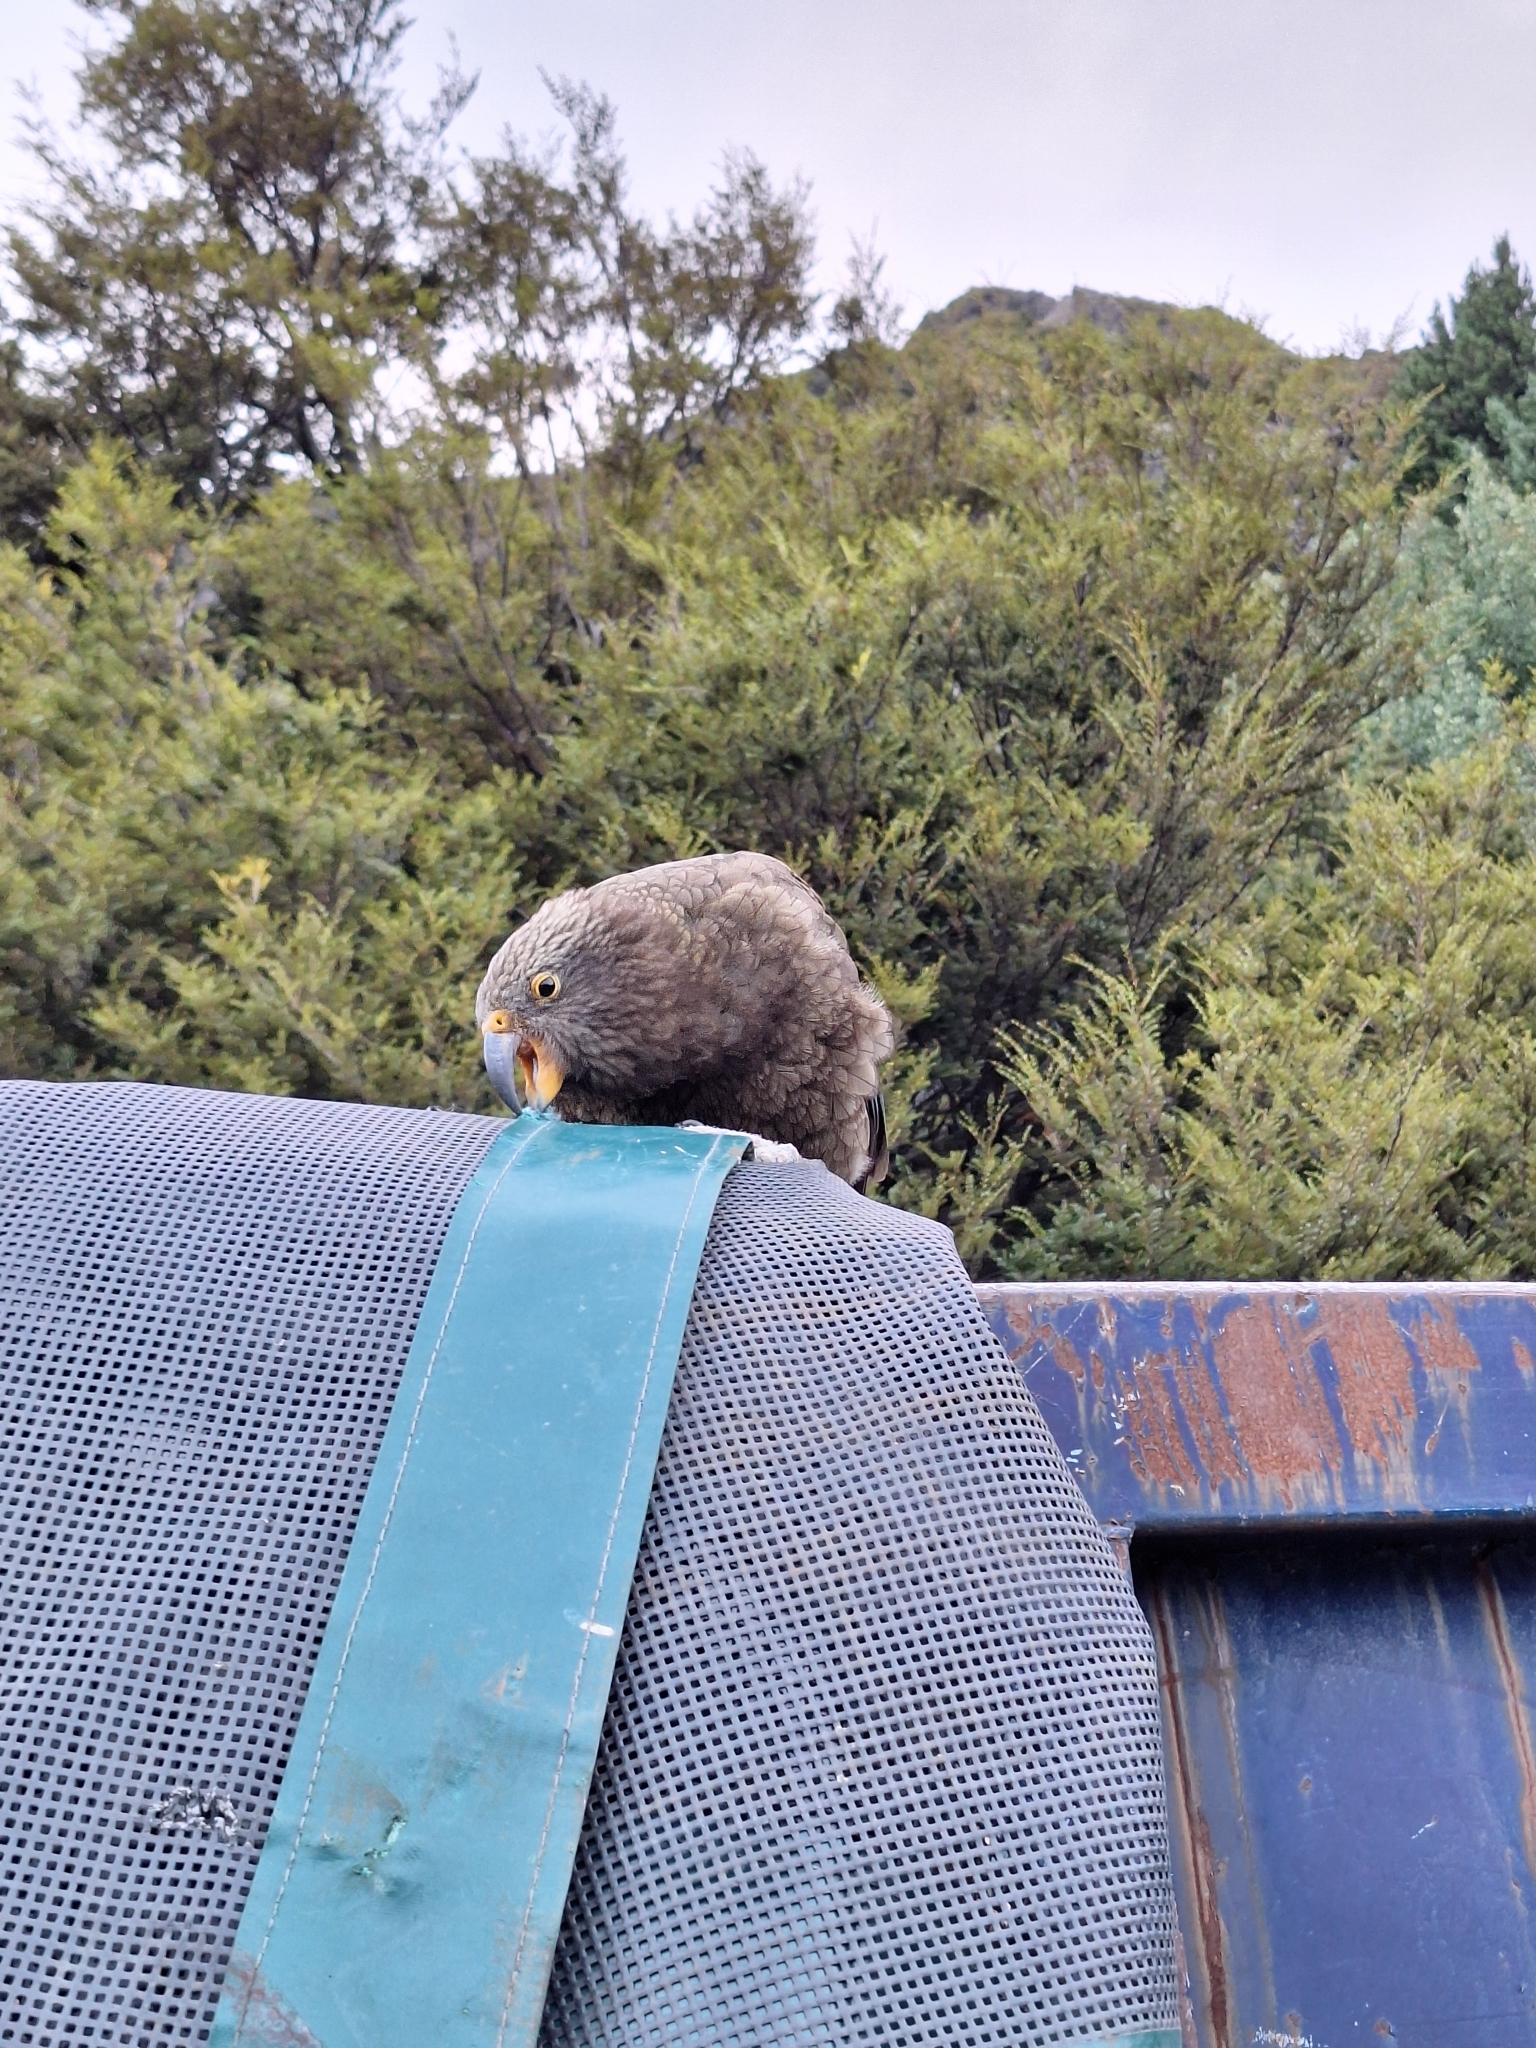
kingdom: Animalia
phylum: Chordata
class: Aves
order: Psittaciformes
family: Psittacidae
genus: Nestor
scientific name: Nestor notabilis
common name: Kea
